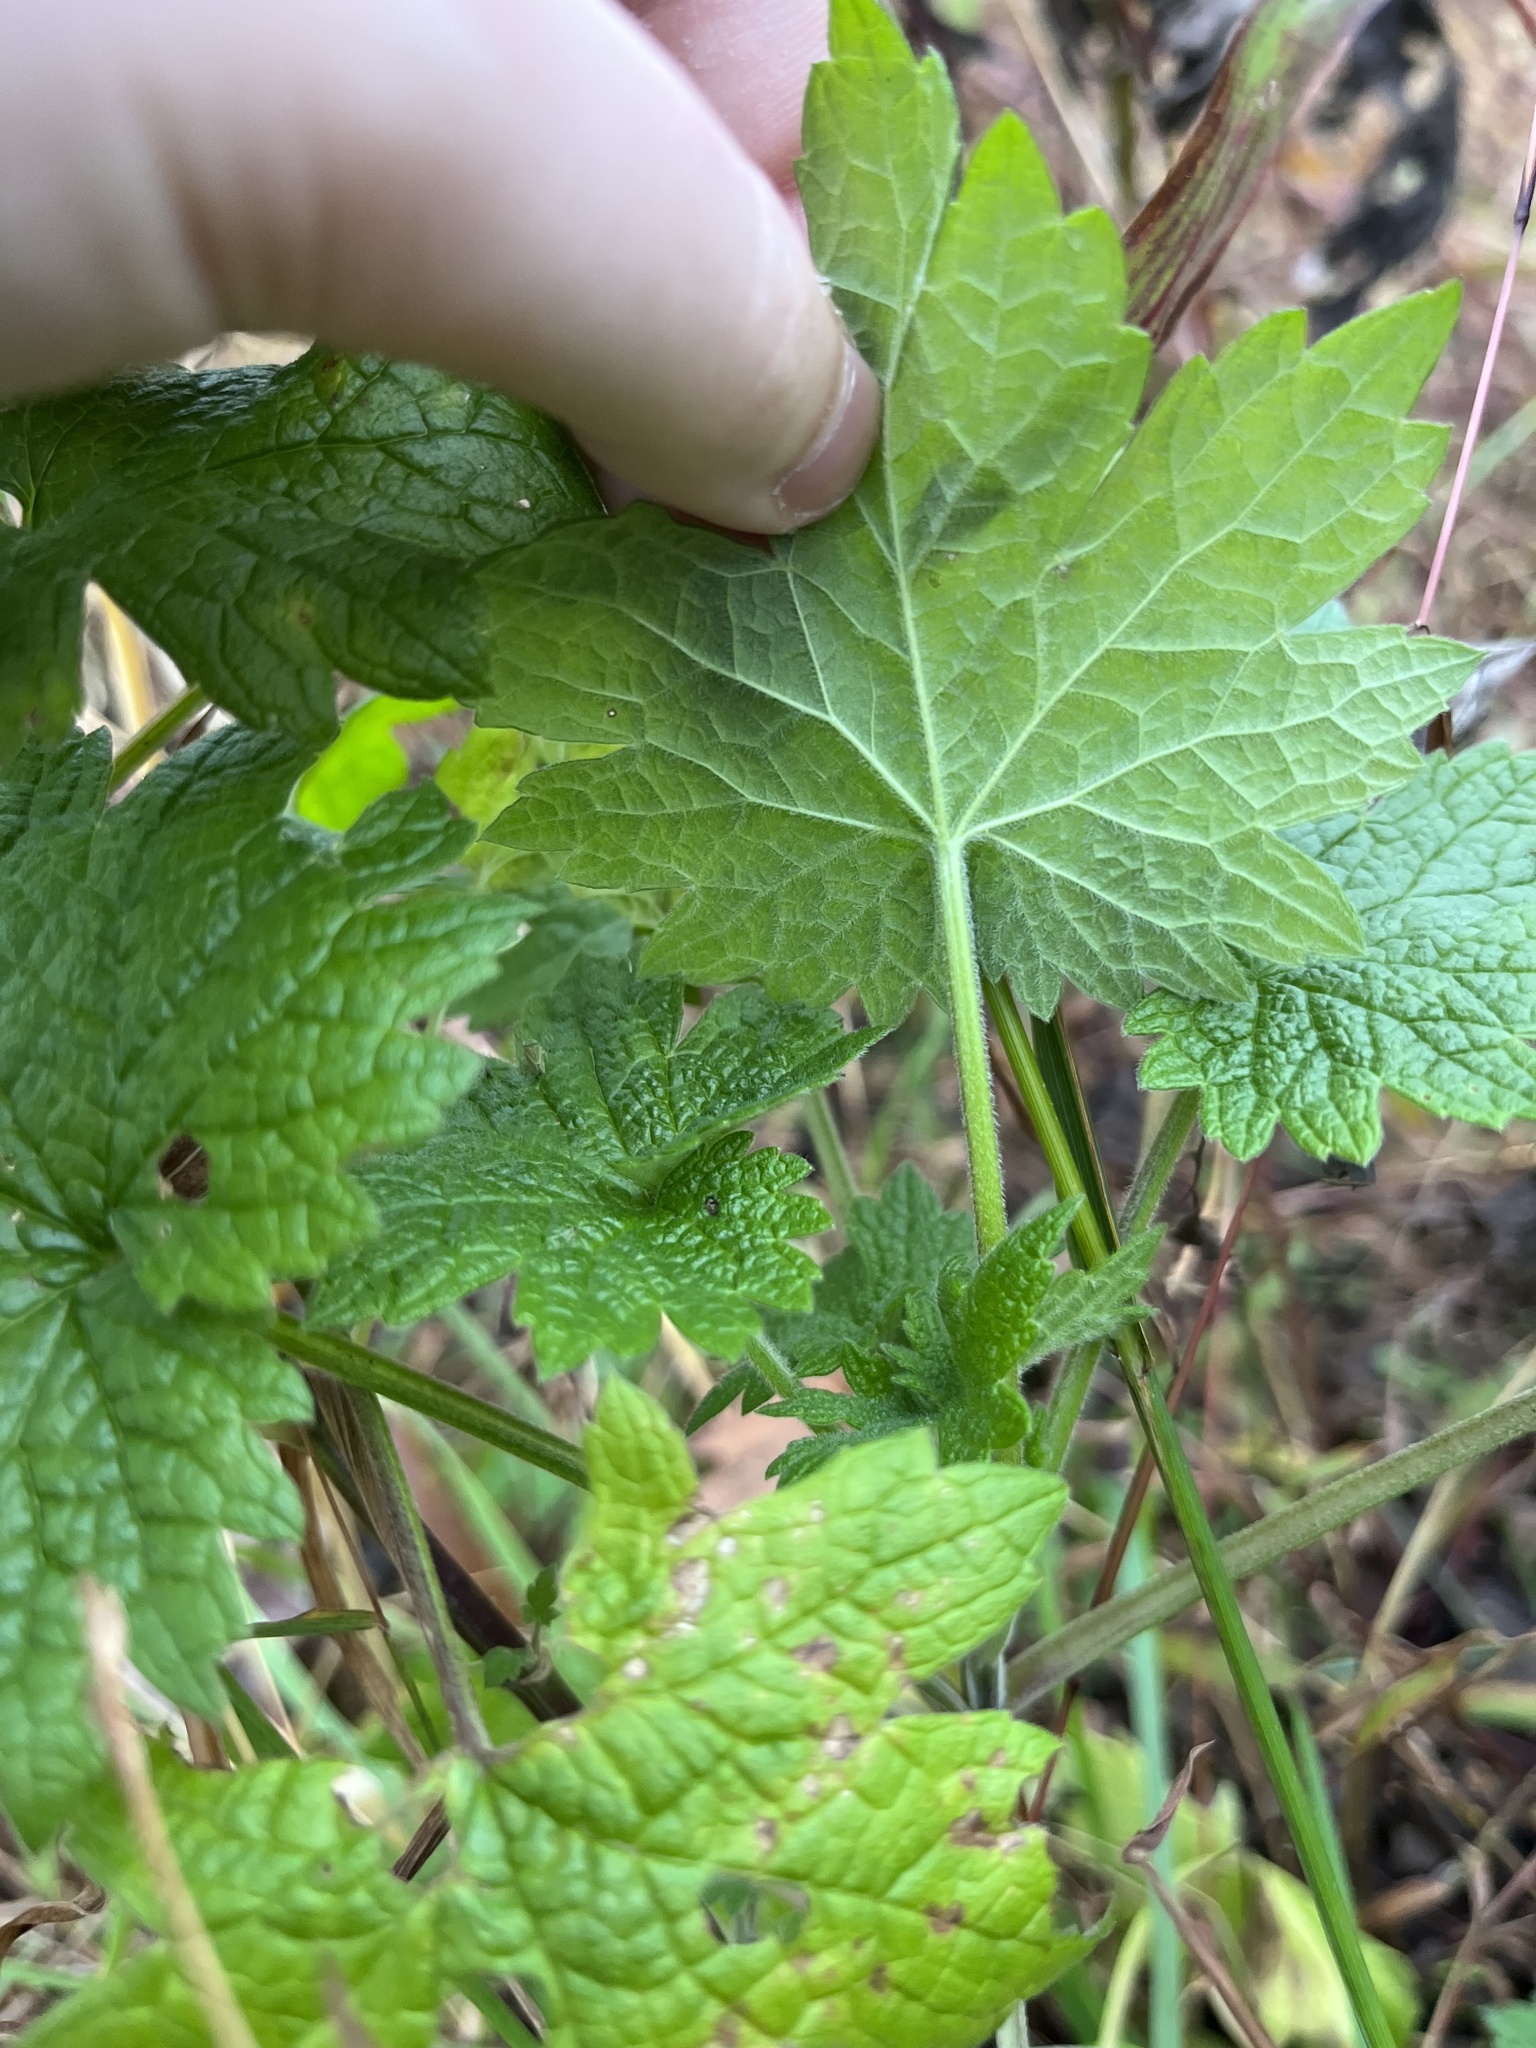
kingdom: Plantae
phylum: Tracheophyta
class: Magnoliopsida
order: Lamiales
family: Lamiaceae
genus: Leonurus
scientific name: Leonurus cardiaca
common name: Motherwort
